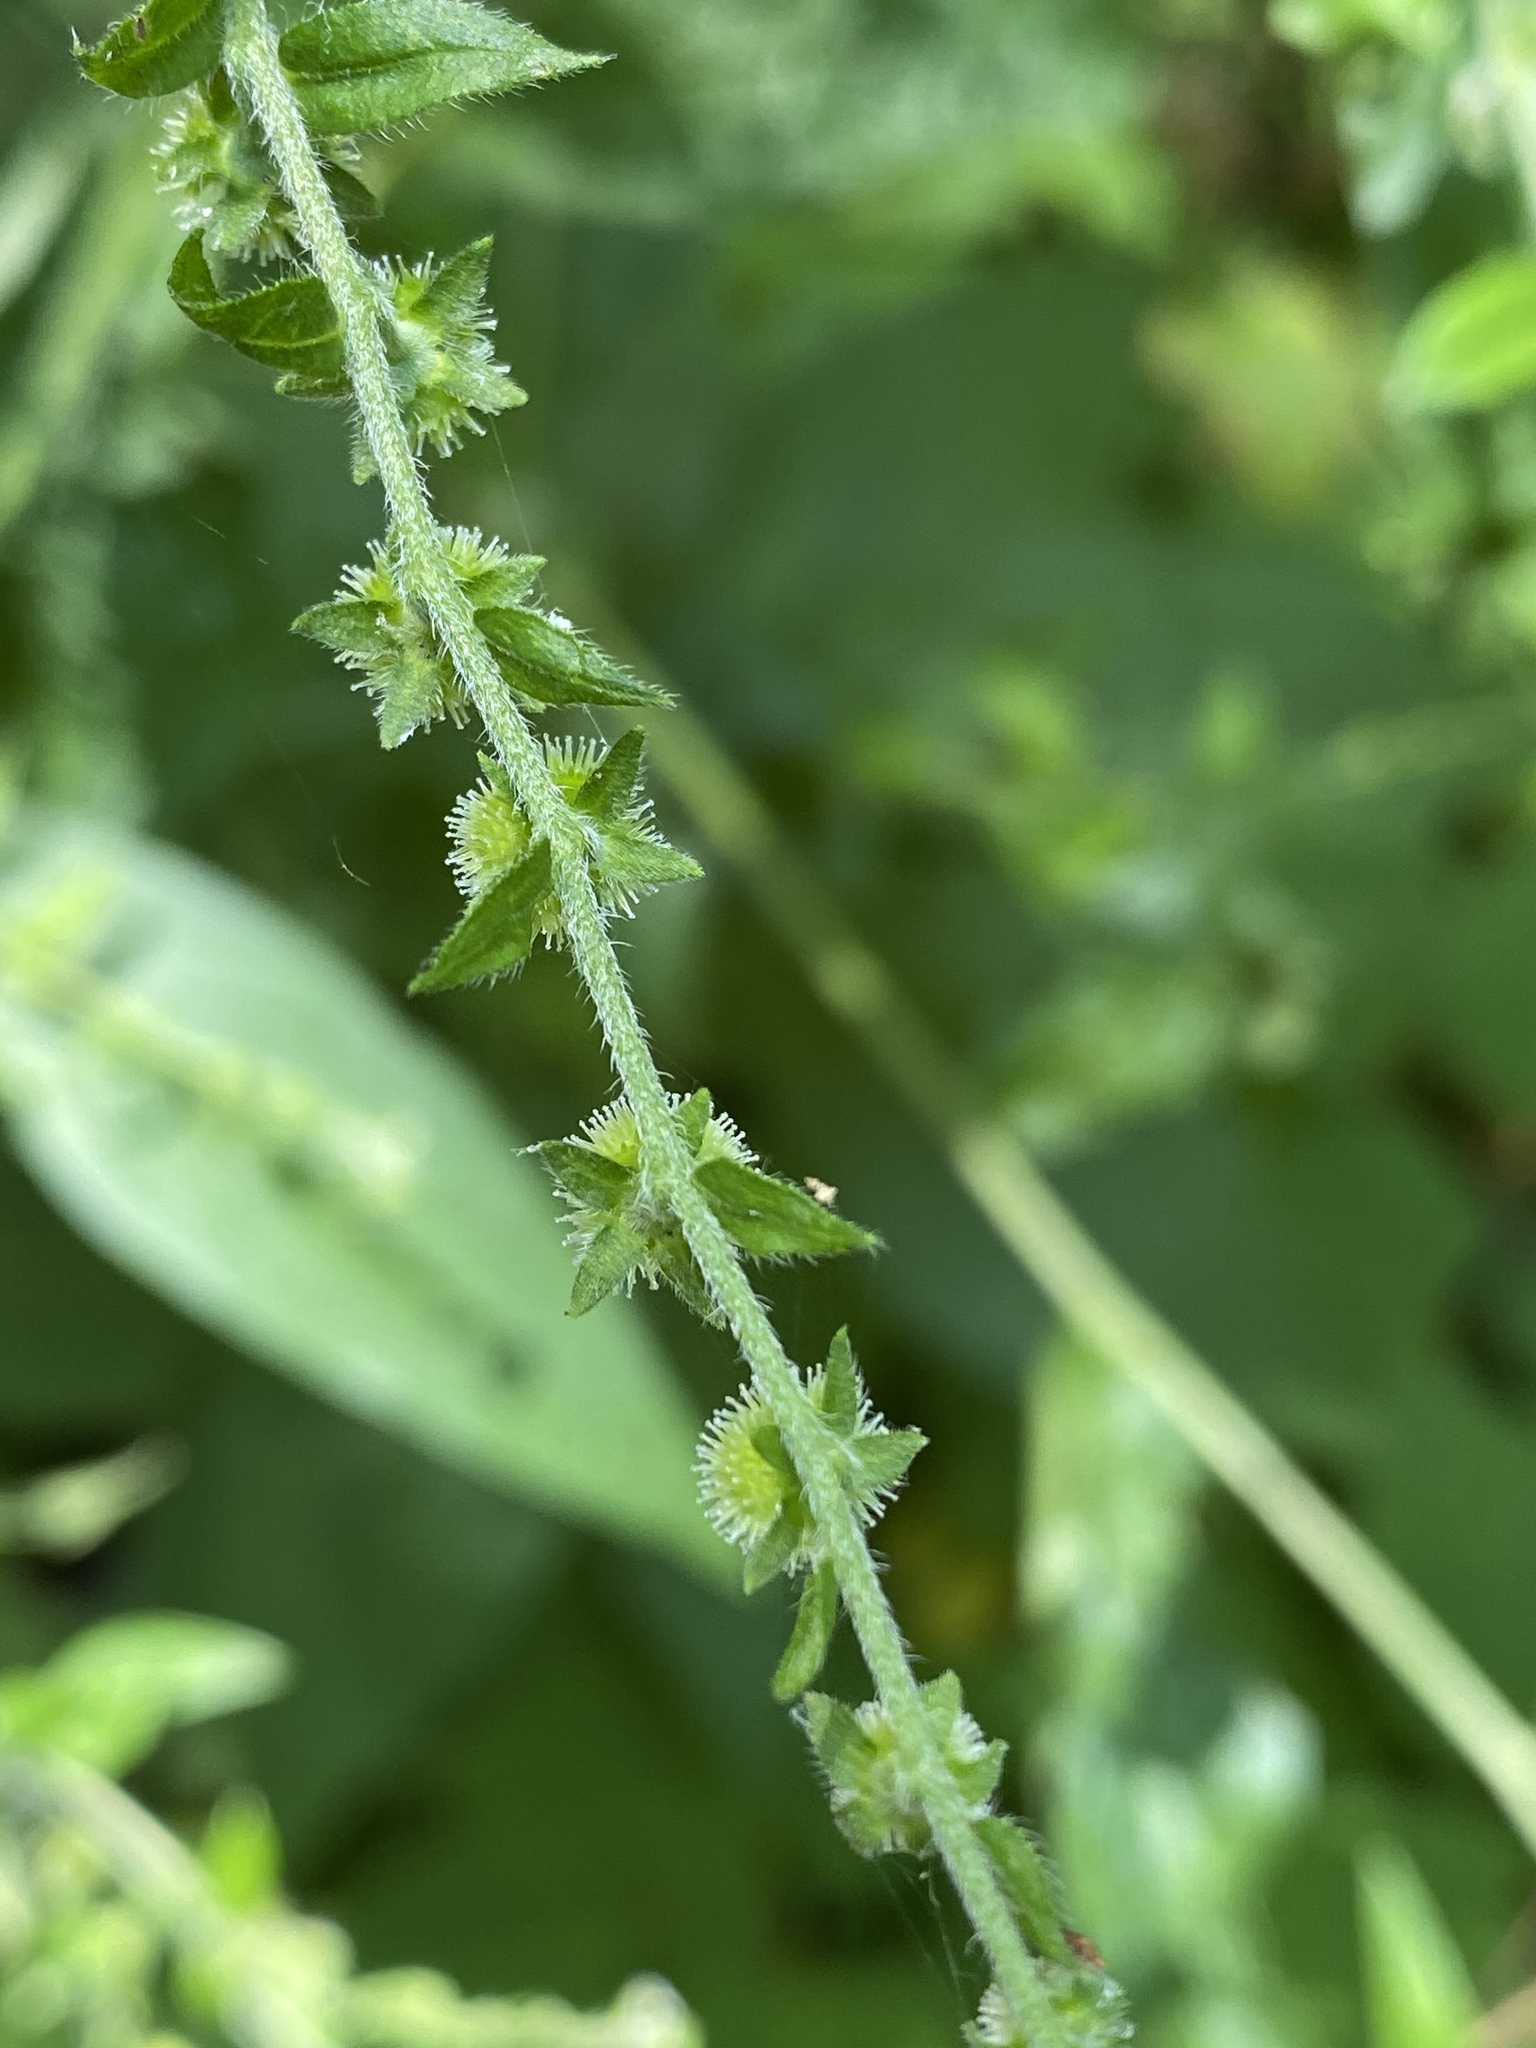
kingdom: Plantae
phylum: Tracheophyta
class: Magnoliopsida
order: Boraginales
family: Boraginaceae
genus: Hackelia
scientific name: Hackelia virginiana
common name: Beggar's-lice
